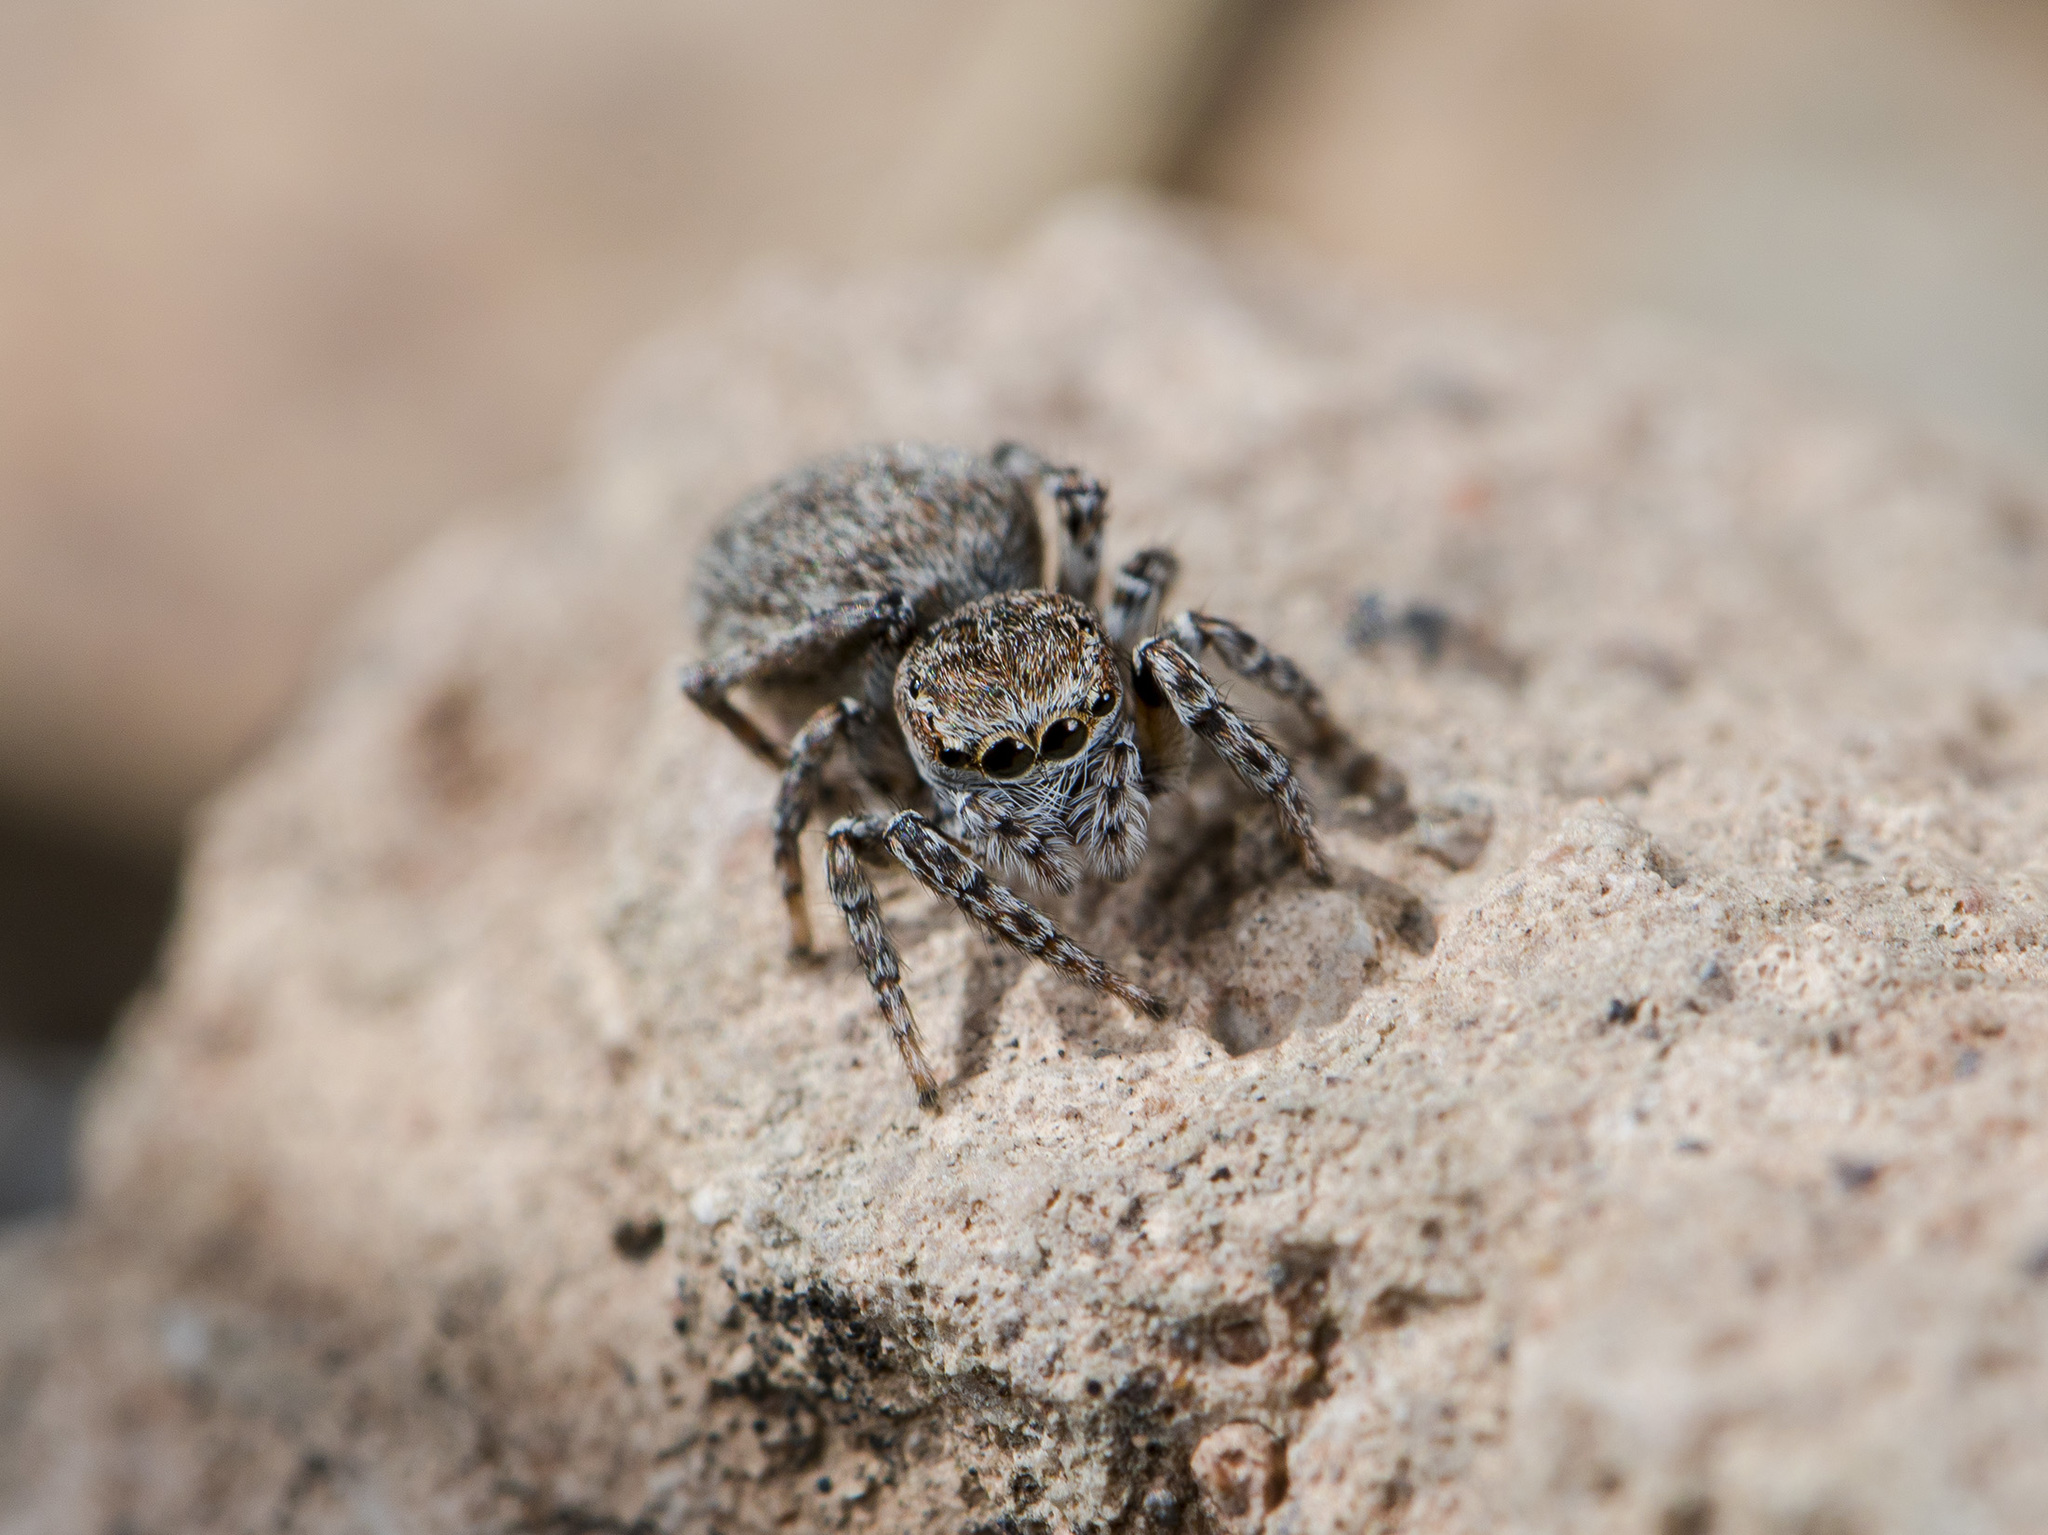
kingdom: Animalia
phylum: Arthropoda
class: Arachnida
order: Araneae
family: Salticidae
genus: Attulus
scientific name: Attulus mirandus
